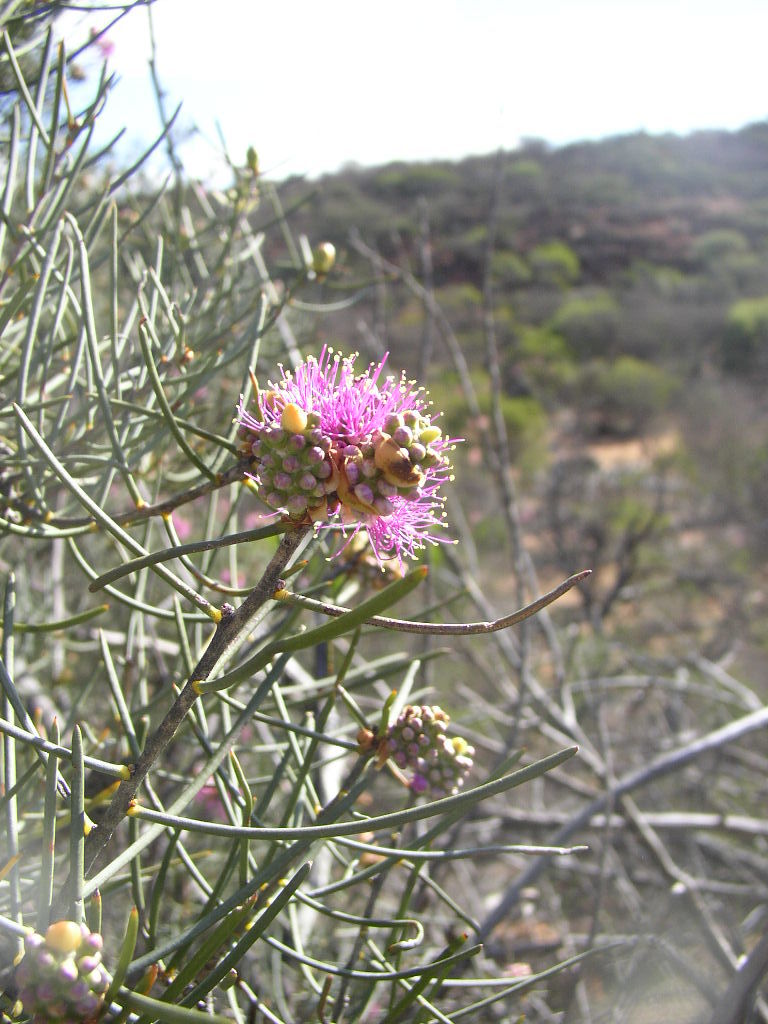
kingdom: Plantae
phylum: Tracheophyta
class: Magnoliopsida
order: Myrtales
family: Myrtaceae
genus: Melaleuca
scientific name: Melaleuca filifolia
